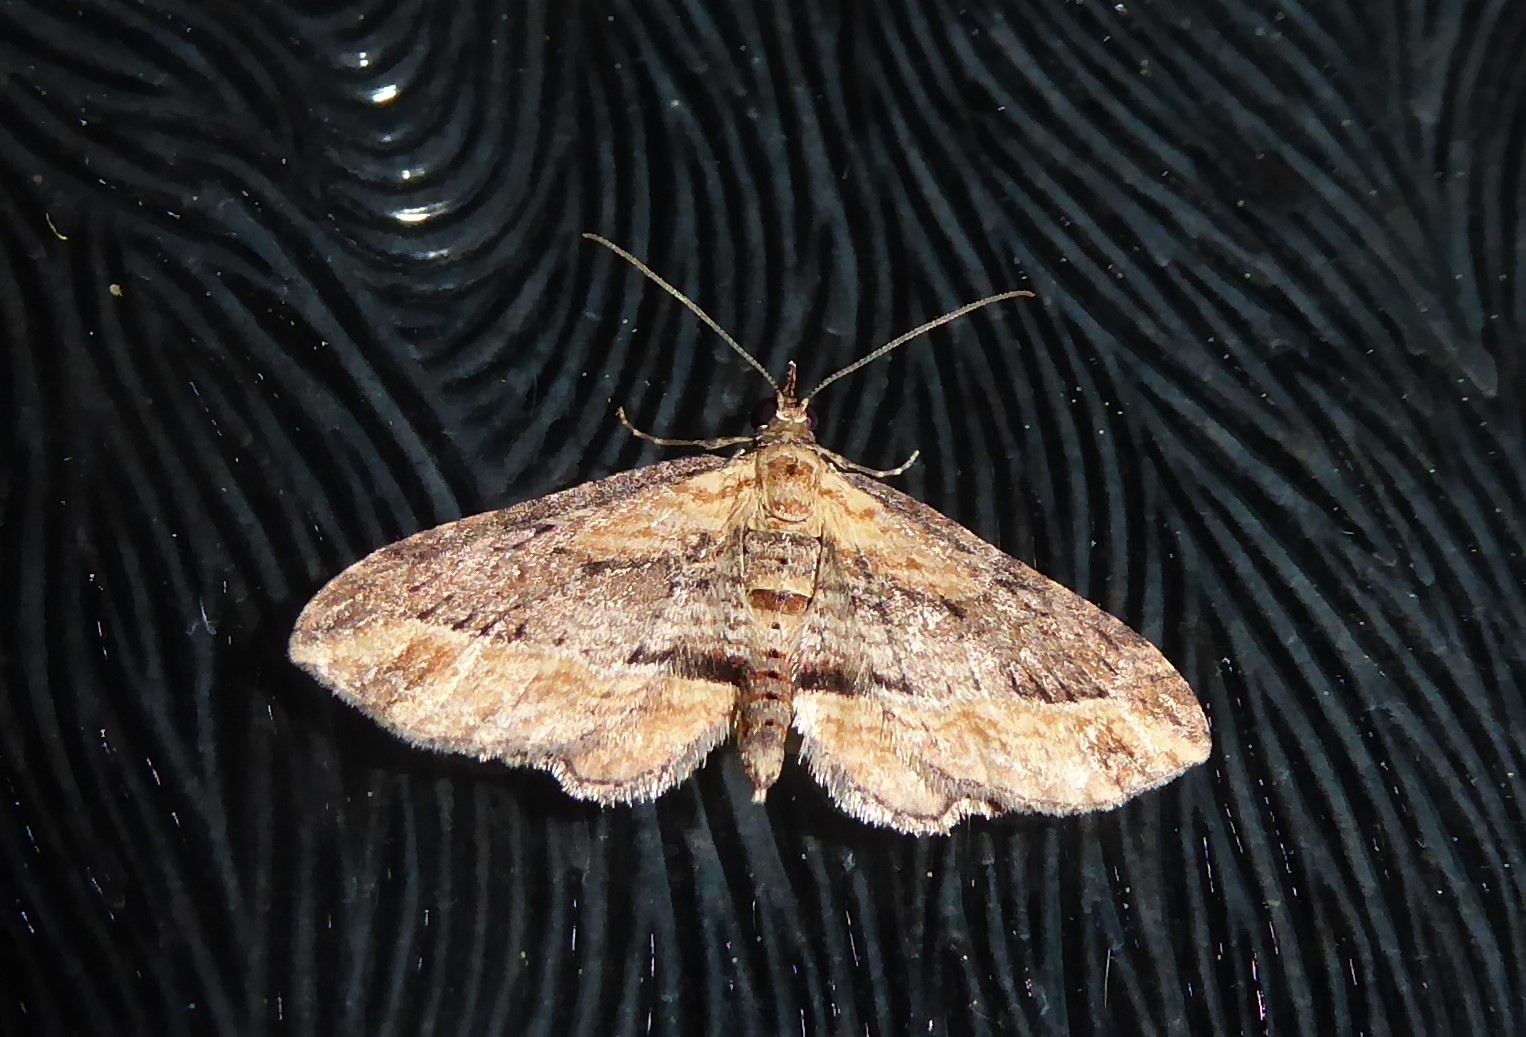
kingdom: Animalia
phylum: Arthropoda
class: Insecta
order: Lepidoptera
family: Geometridae
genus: Chloroclystis
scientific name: Chloroclystis filata
